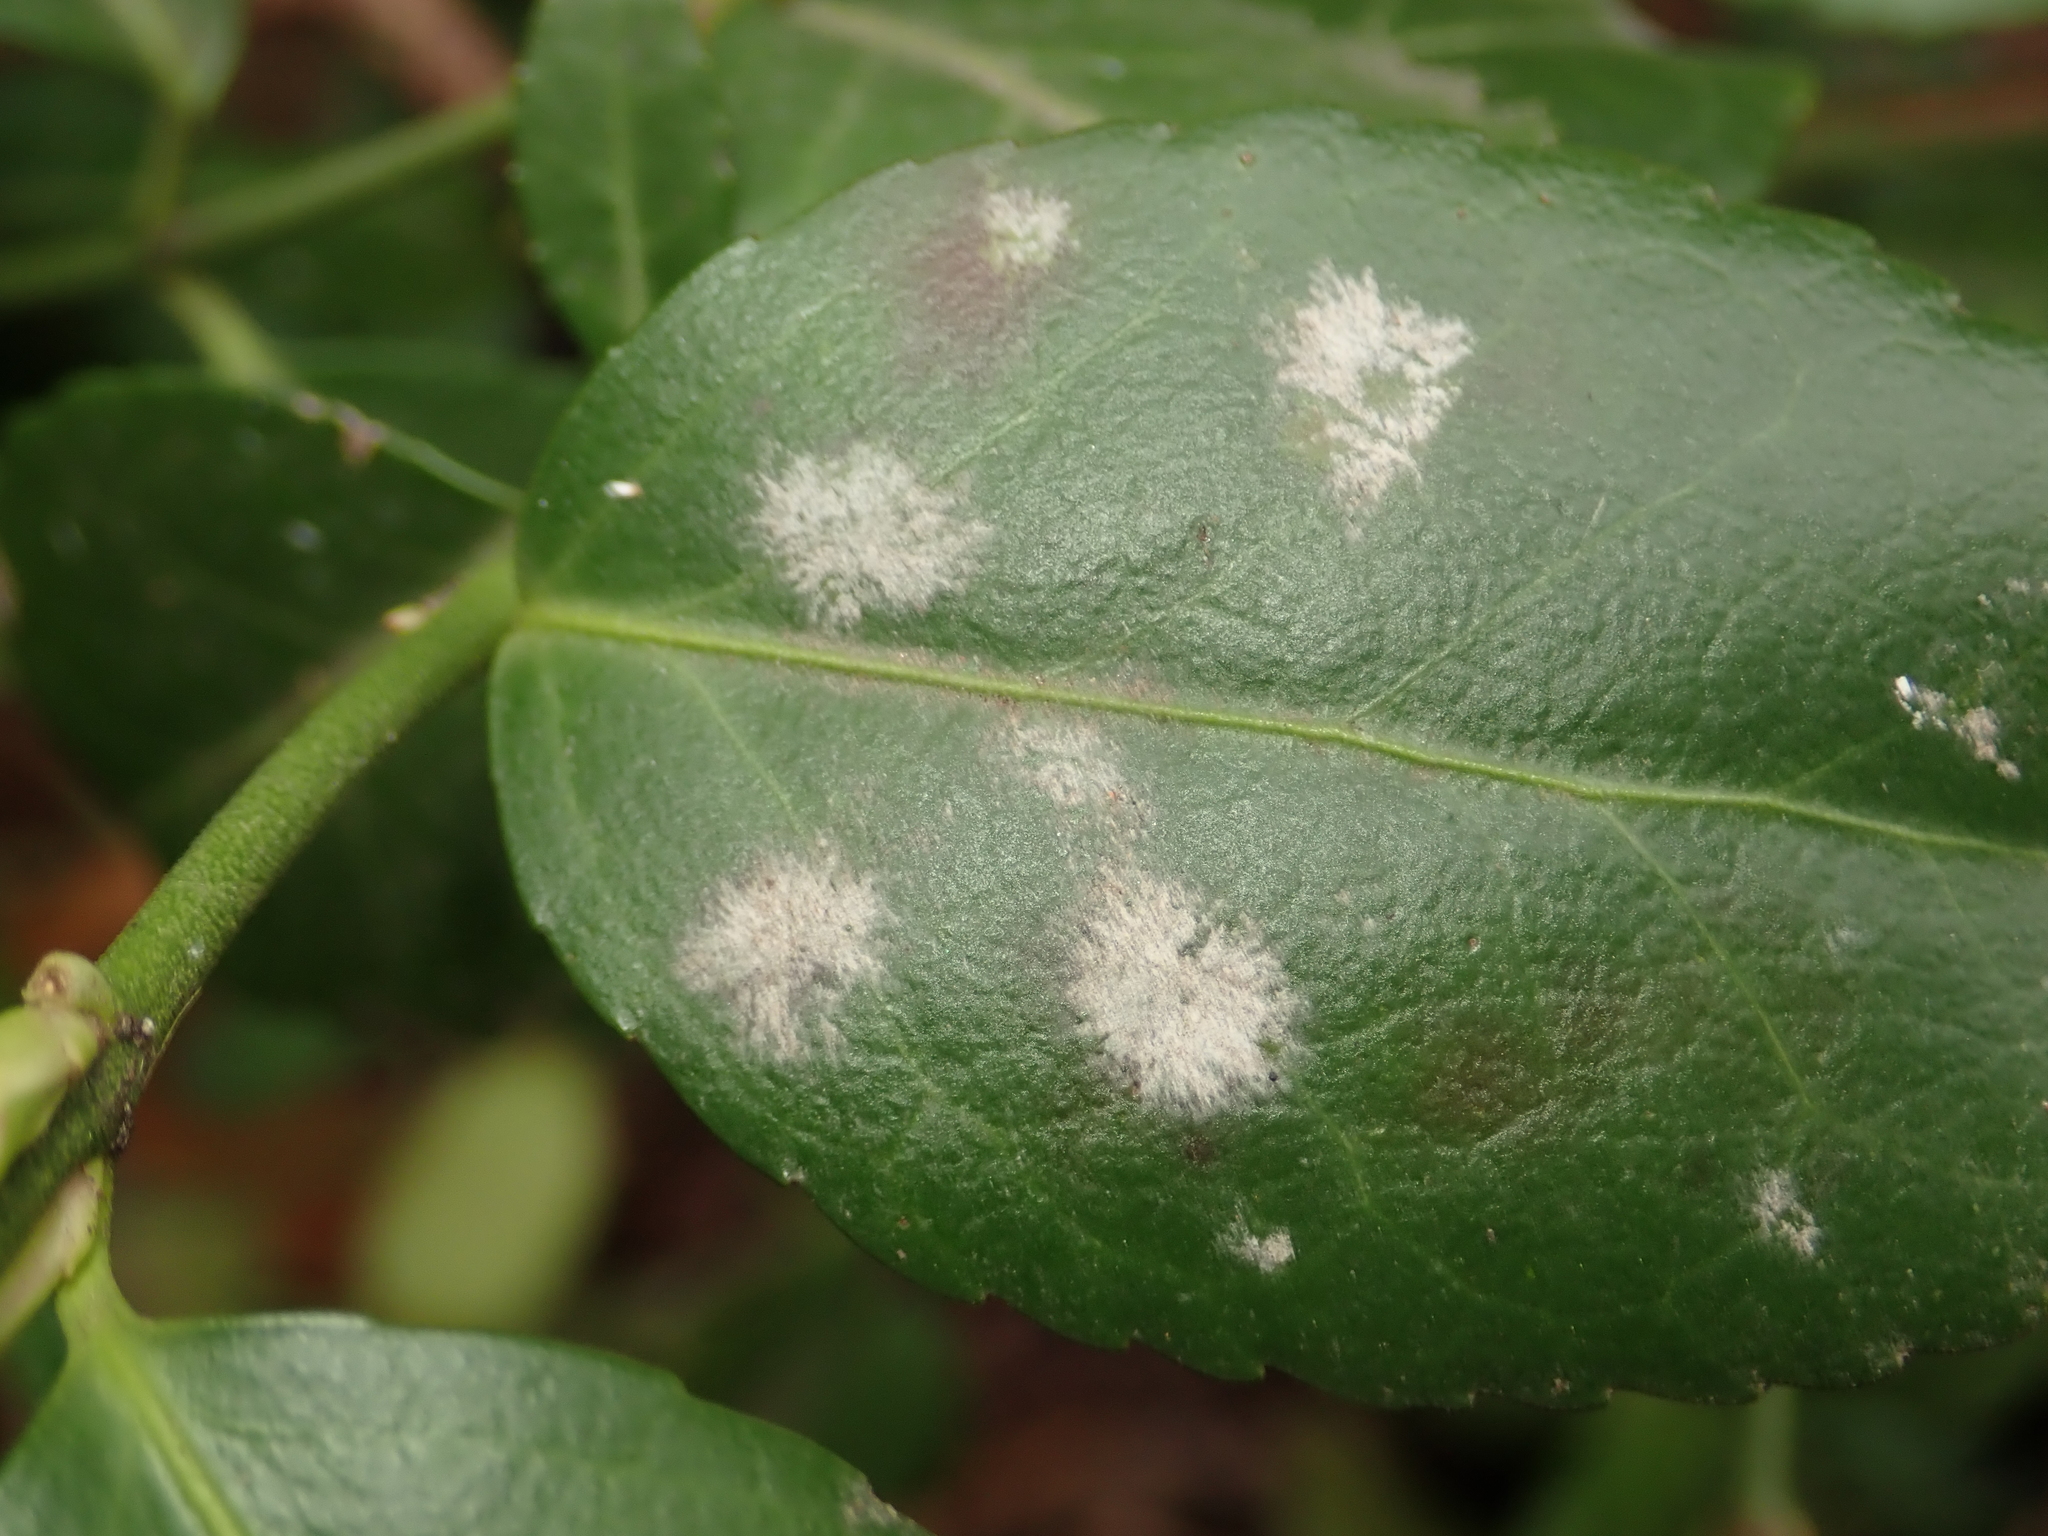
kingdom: Fungi
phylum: Ascomycota
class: Leotiomycetes
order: Helotiales
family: Erysiphaceae
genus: Erysiphe
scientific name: Erysiphe euonymicola
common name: Spindletree mildew
